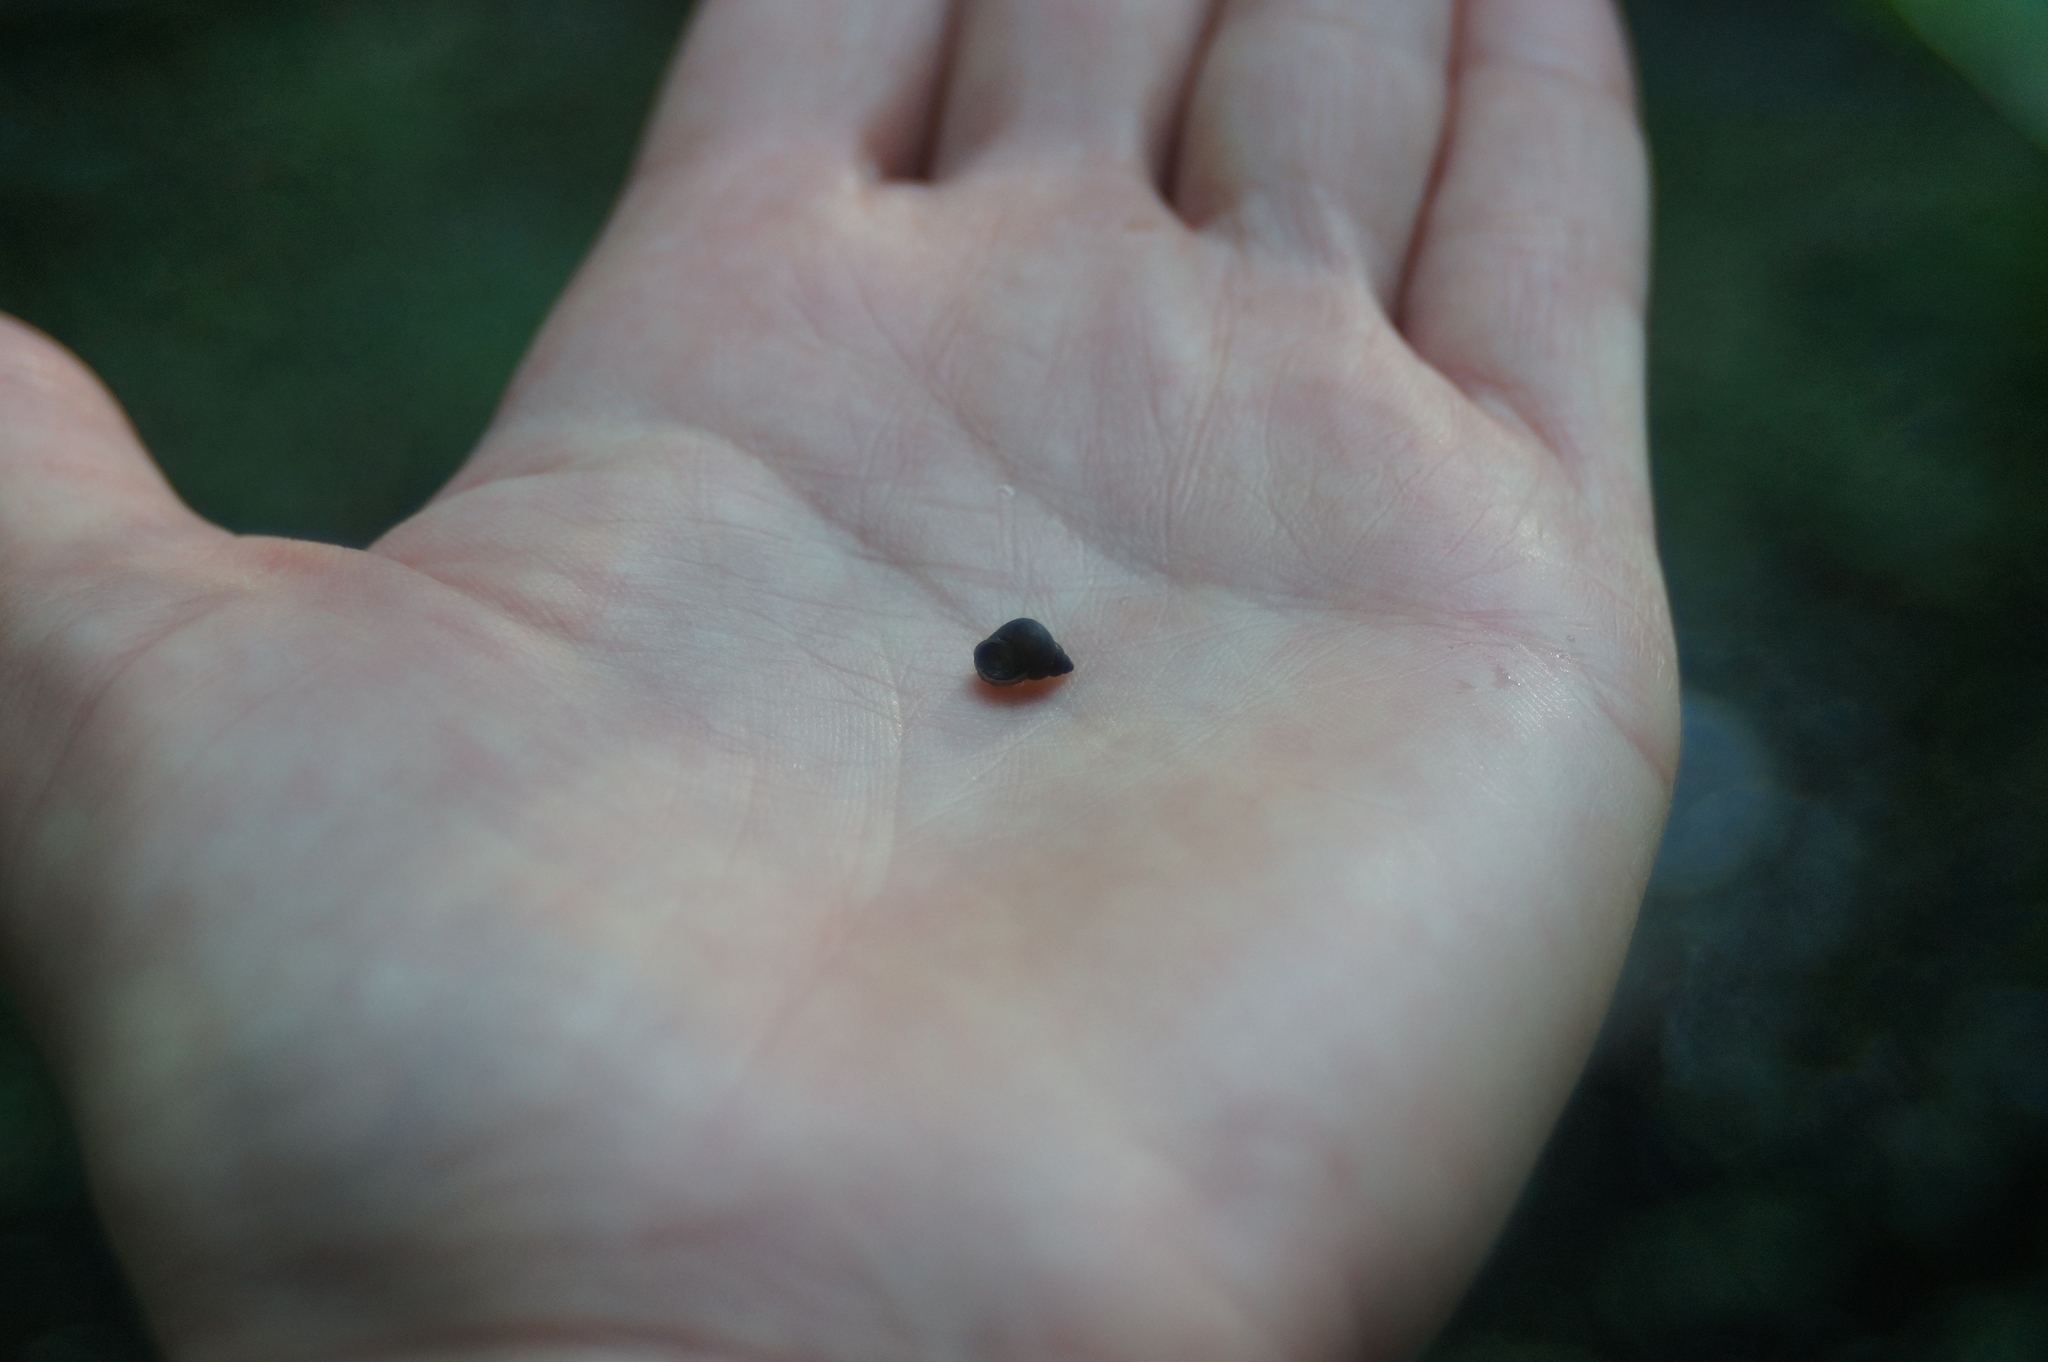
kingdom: Animalia
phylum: Mollusca
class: Gastropoda
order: Littorinimorpha
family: Bithyniidae
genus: Bithynia
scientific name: Bithynia tentaculata
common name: Common bithynia
